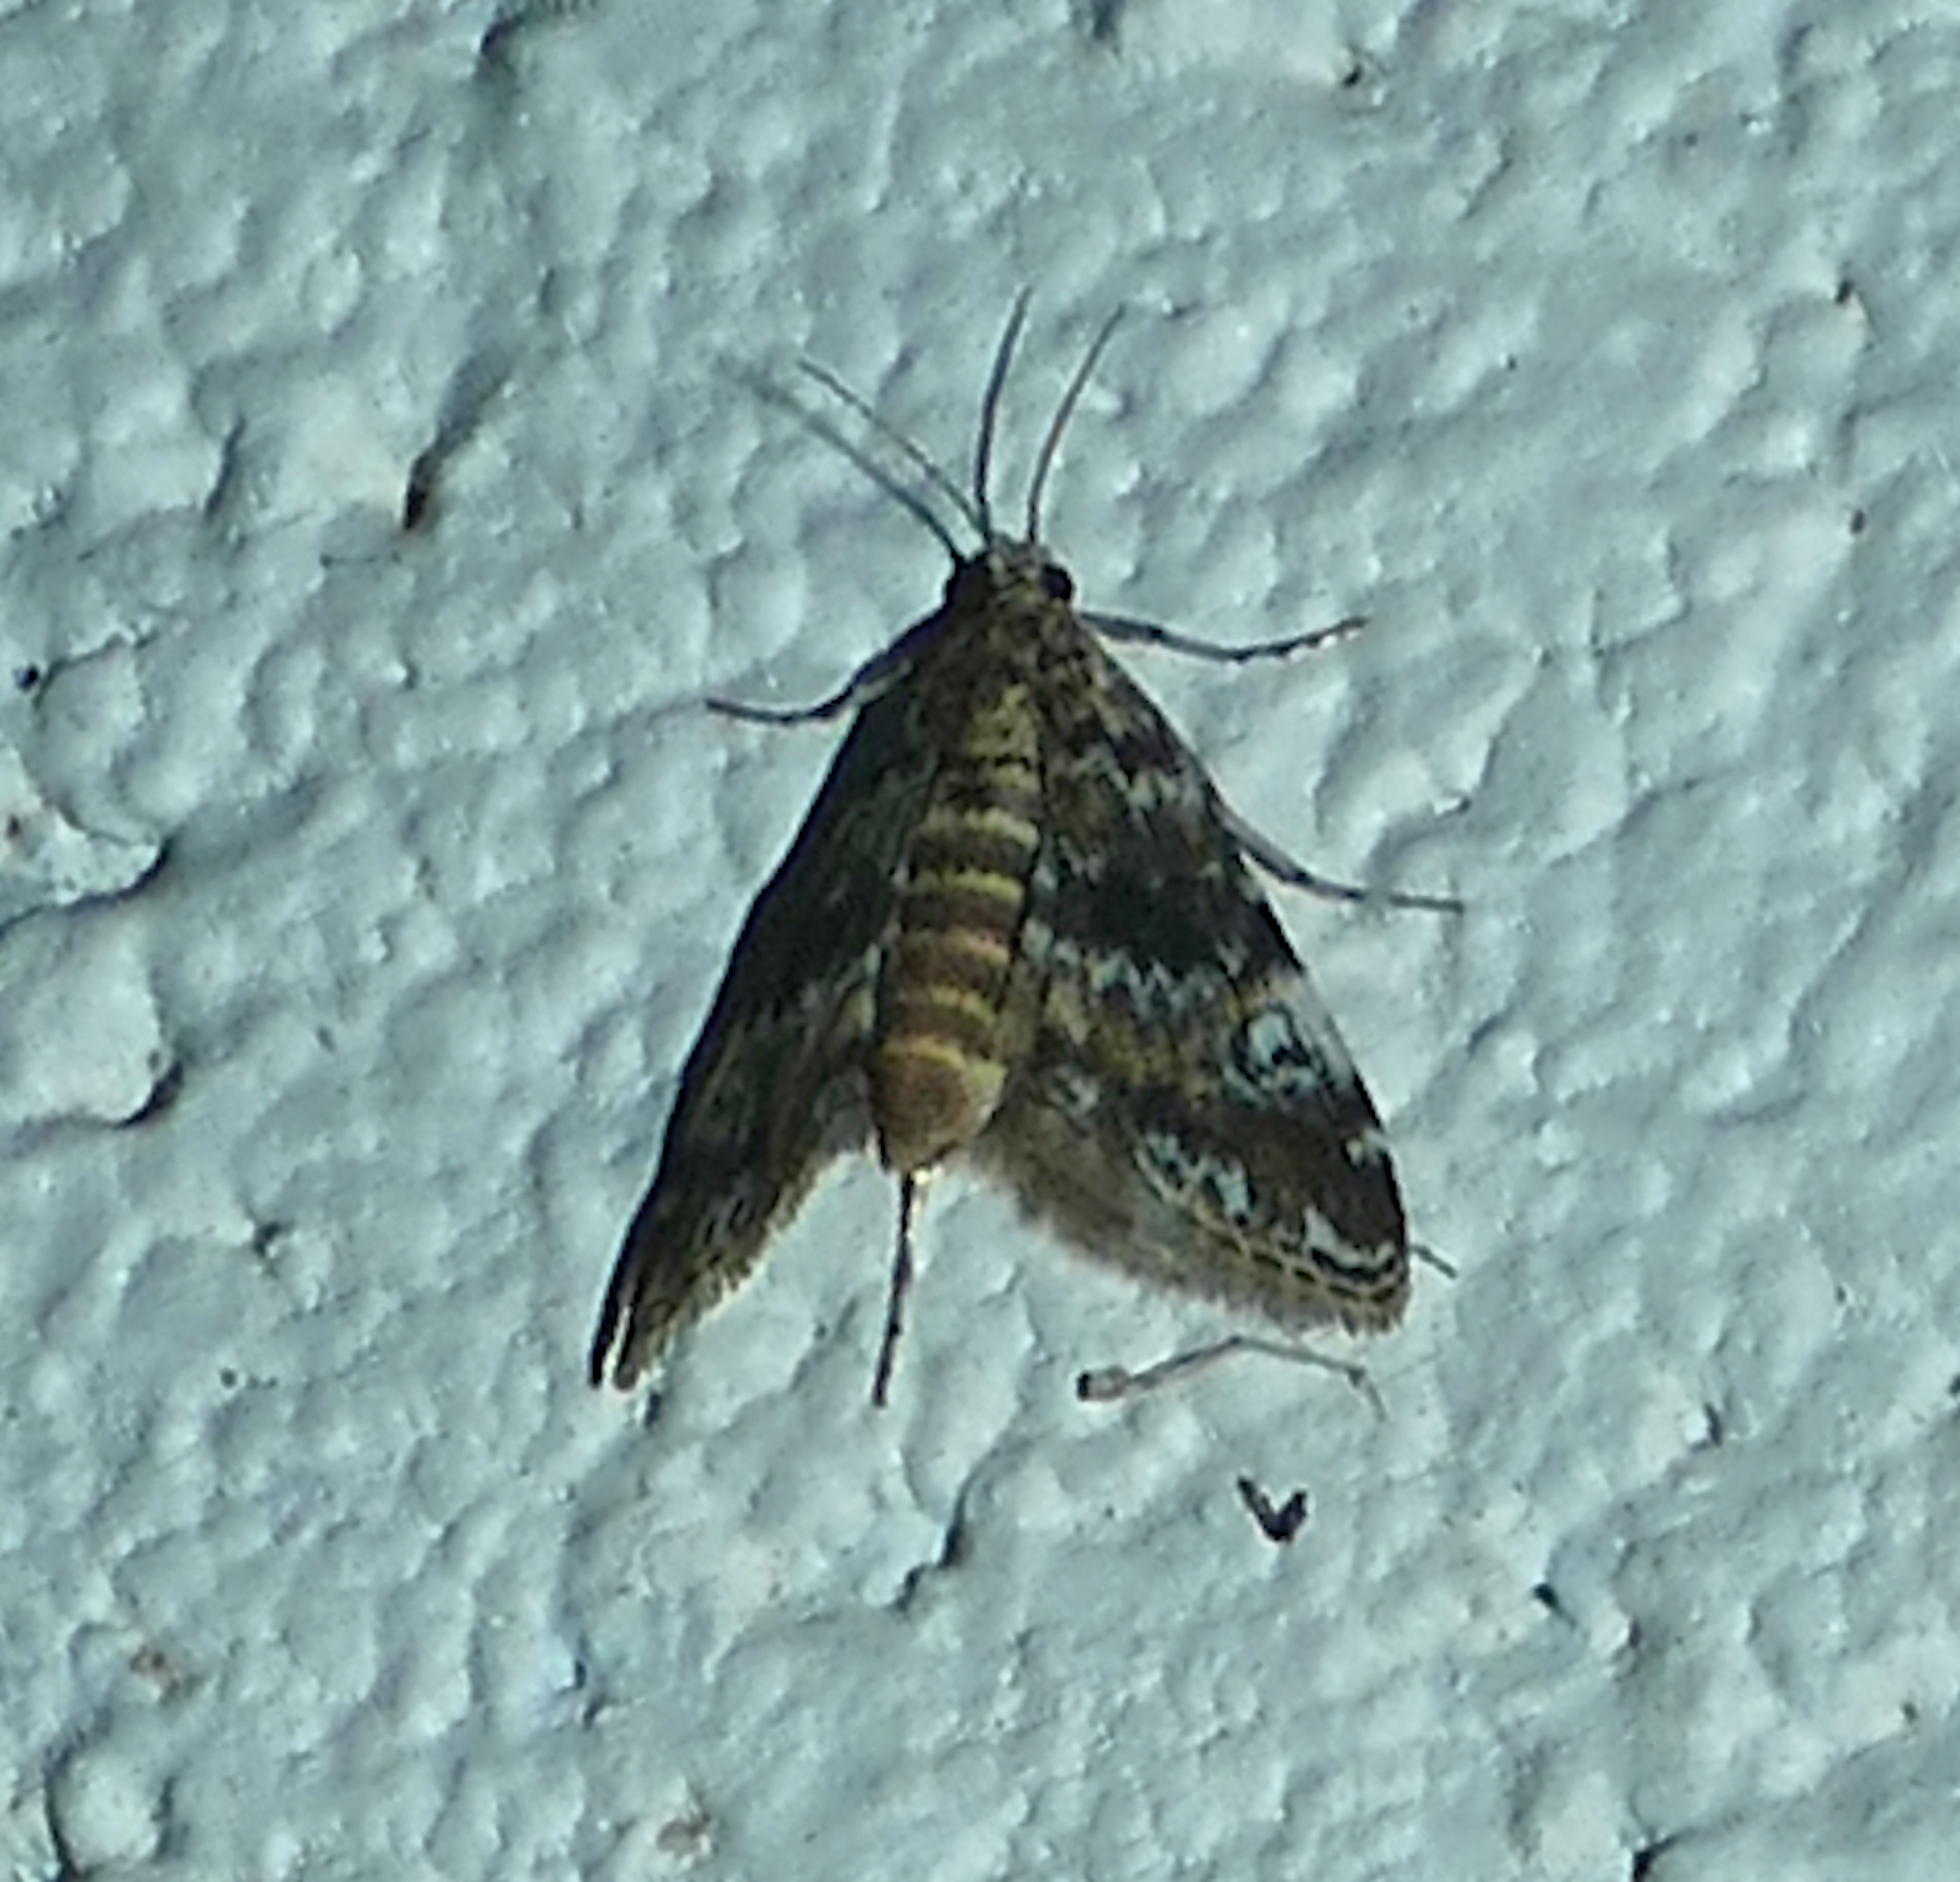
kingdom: Animalia
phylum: Arthropoda
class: Insecta
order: Lepidoptera
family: Crambidae
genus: Elophila
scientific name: Elophila obliteralis
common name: Waterlily leafcutter moth
